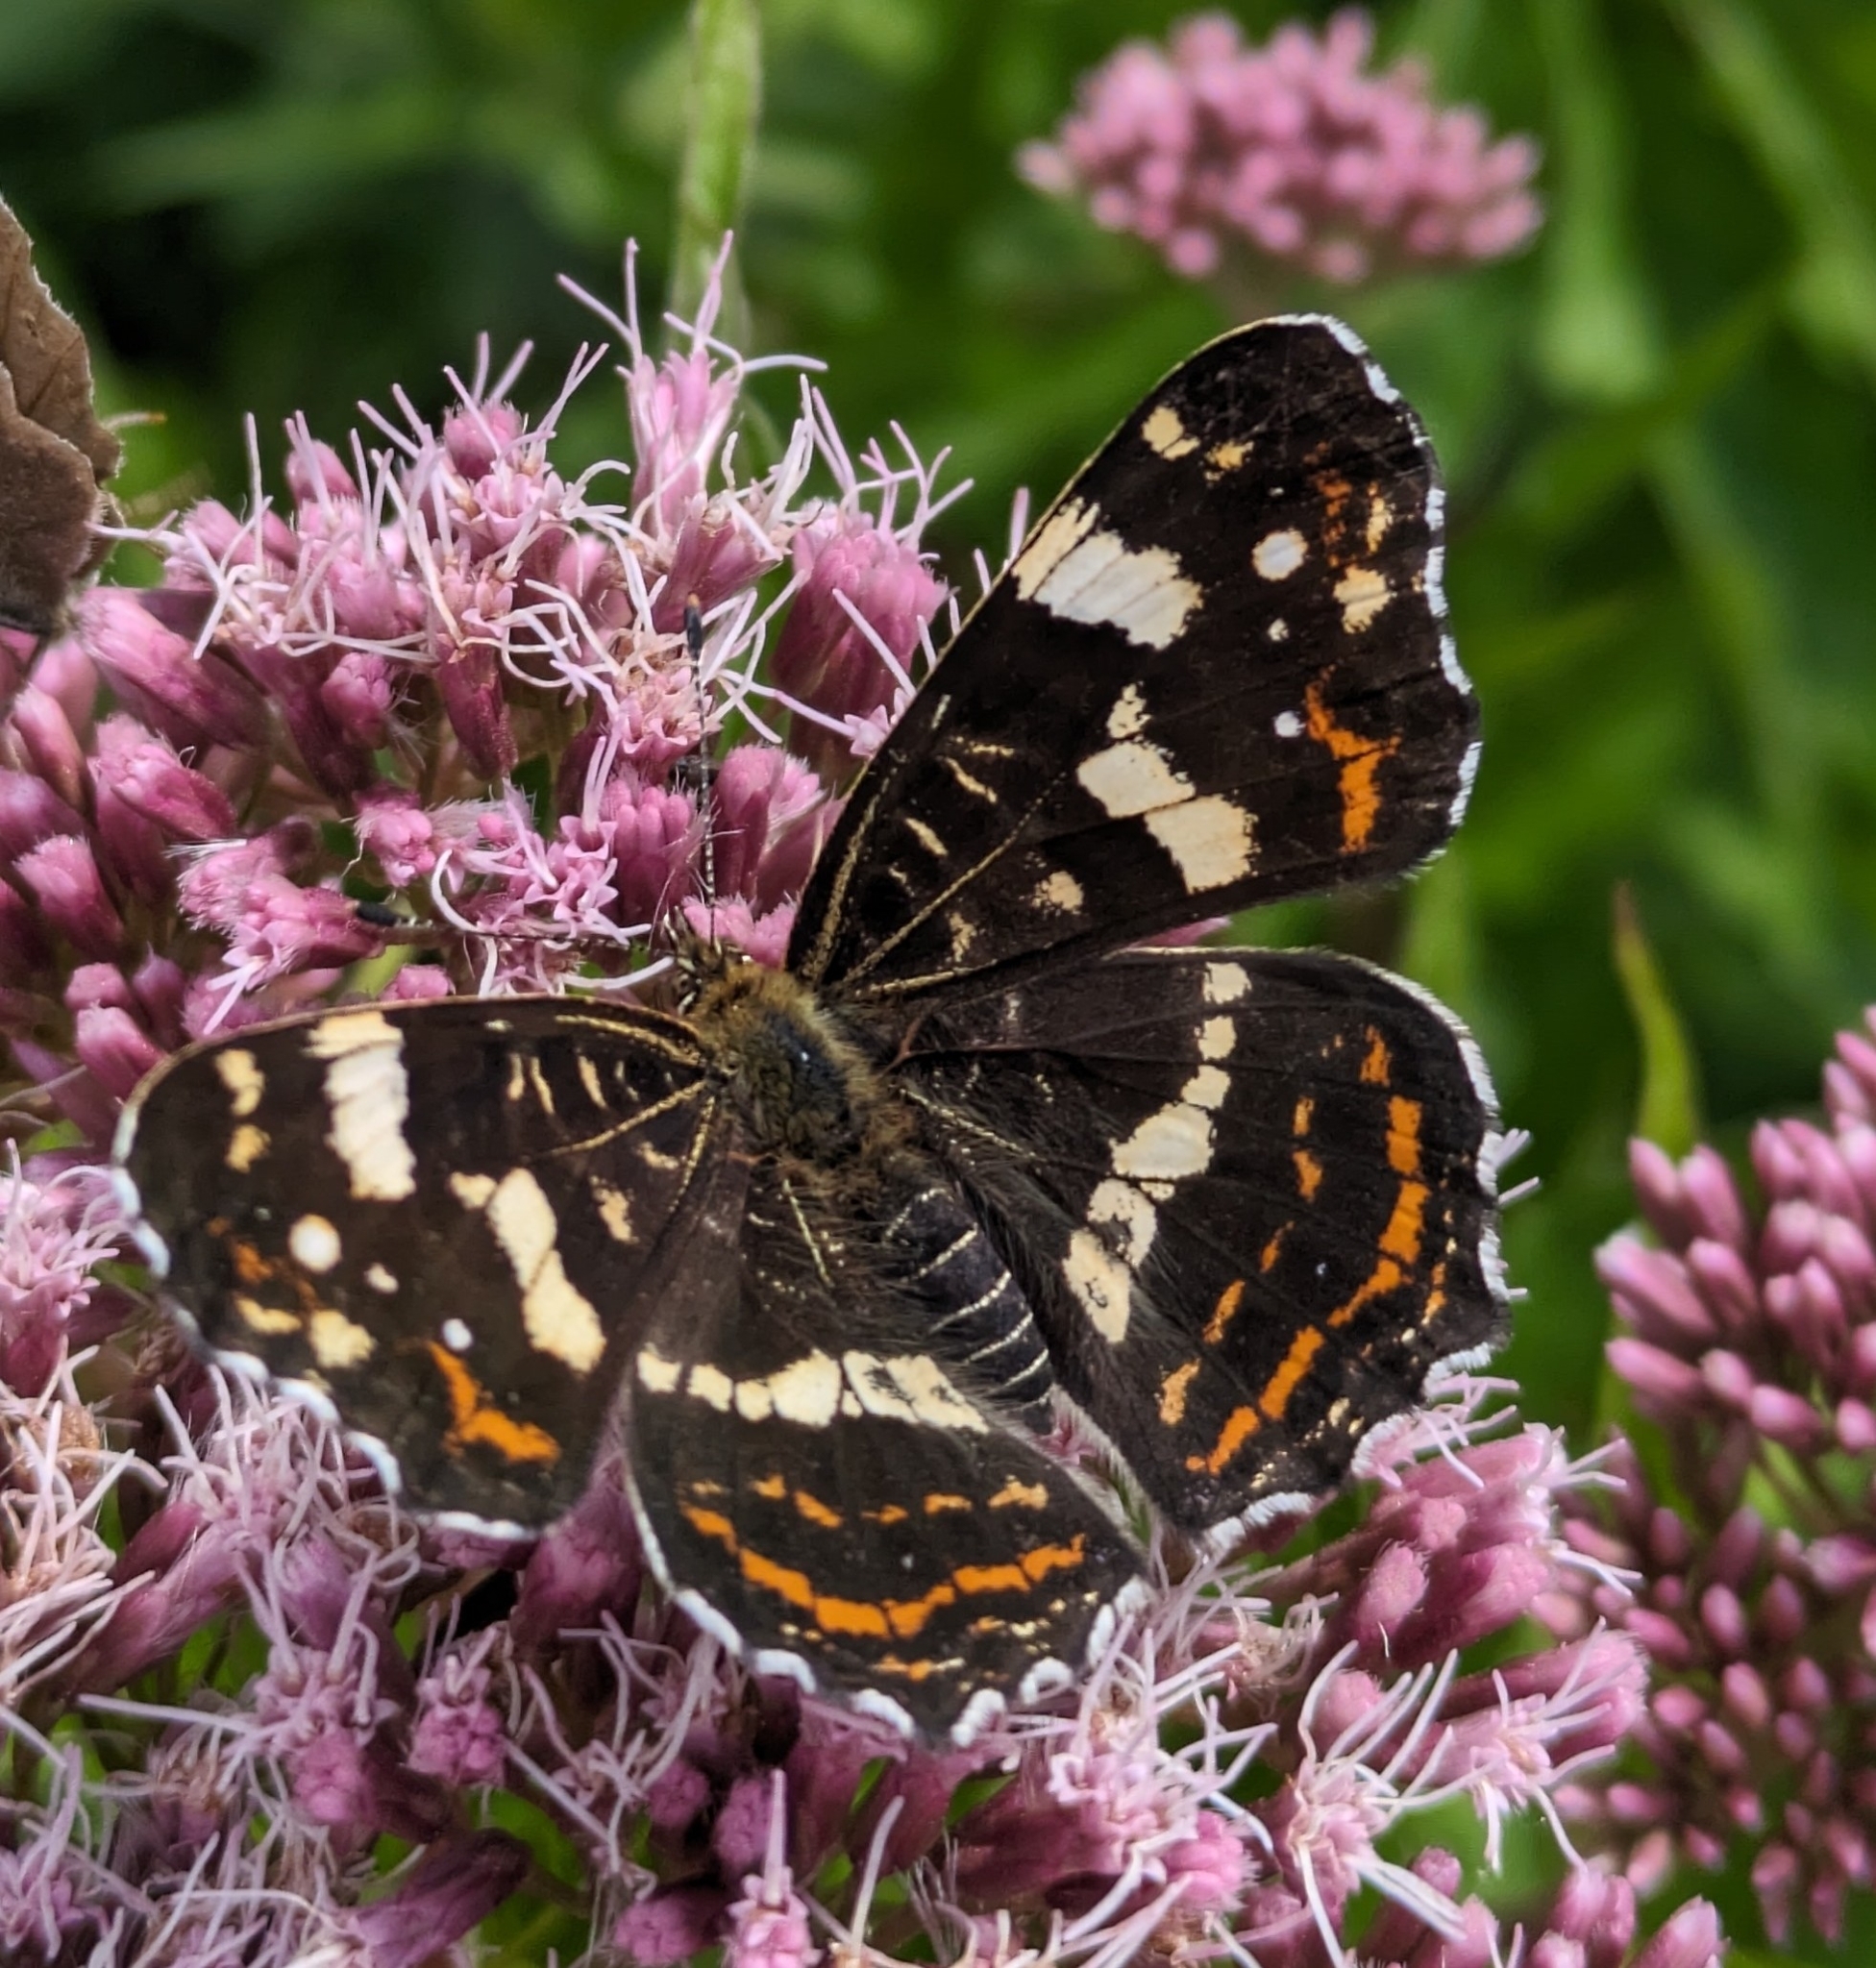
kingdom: Animalia
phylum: Arthropoda
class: Insecta
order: Lepidoptera
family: Nymphalidae
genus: Araschnia
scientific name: Araschnia levana
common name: Map butterfly
